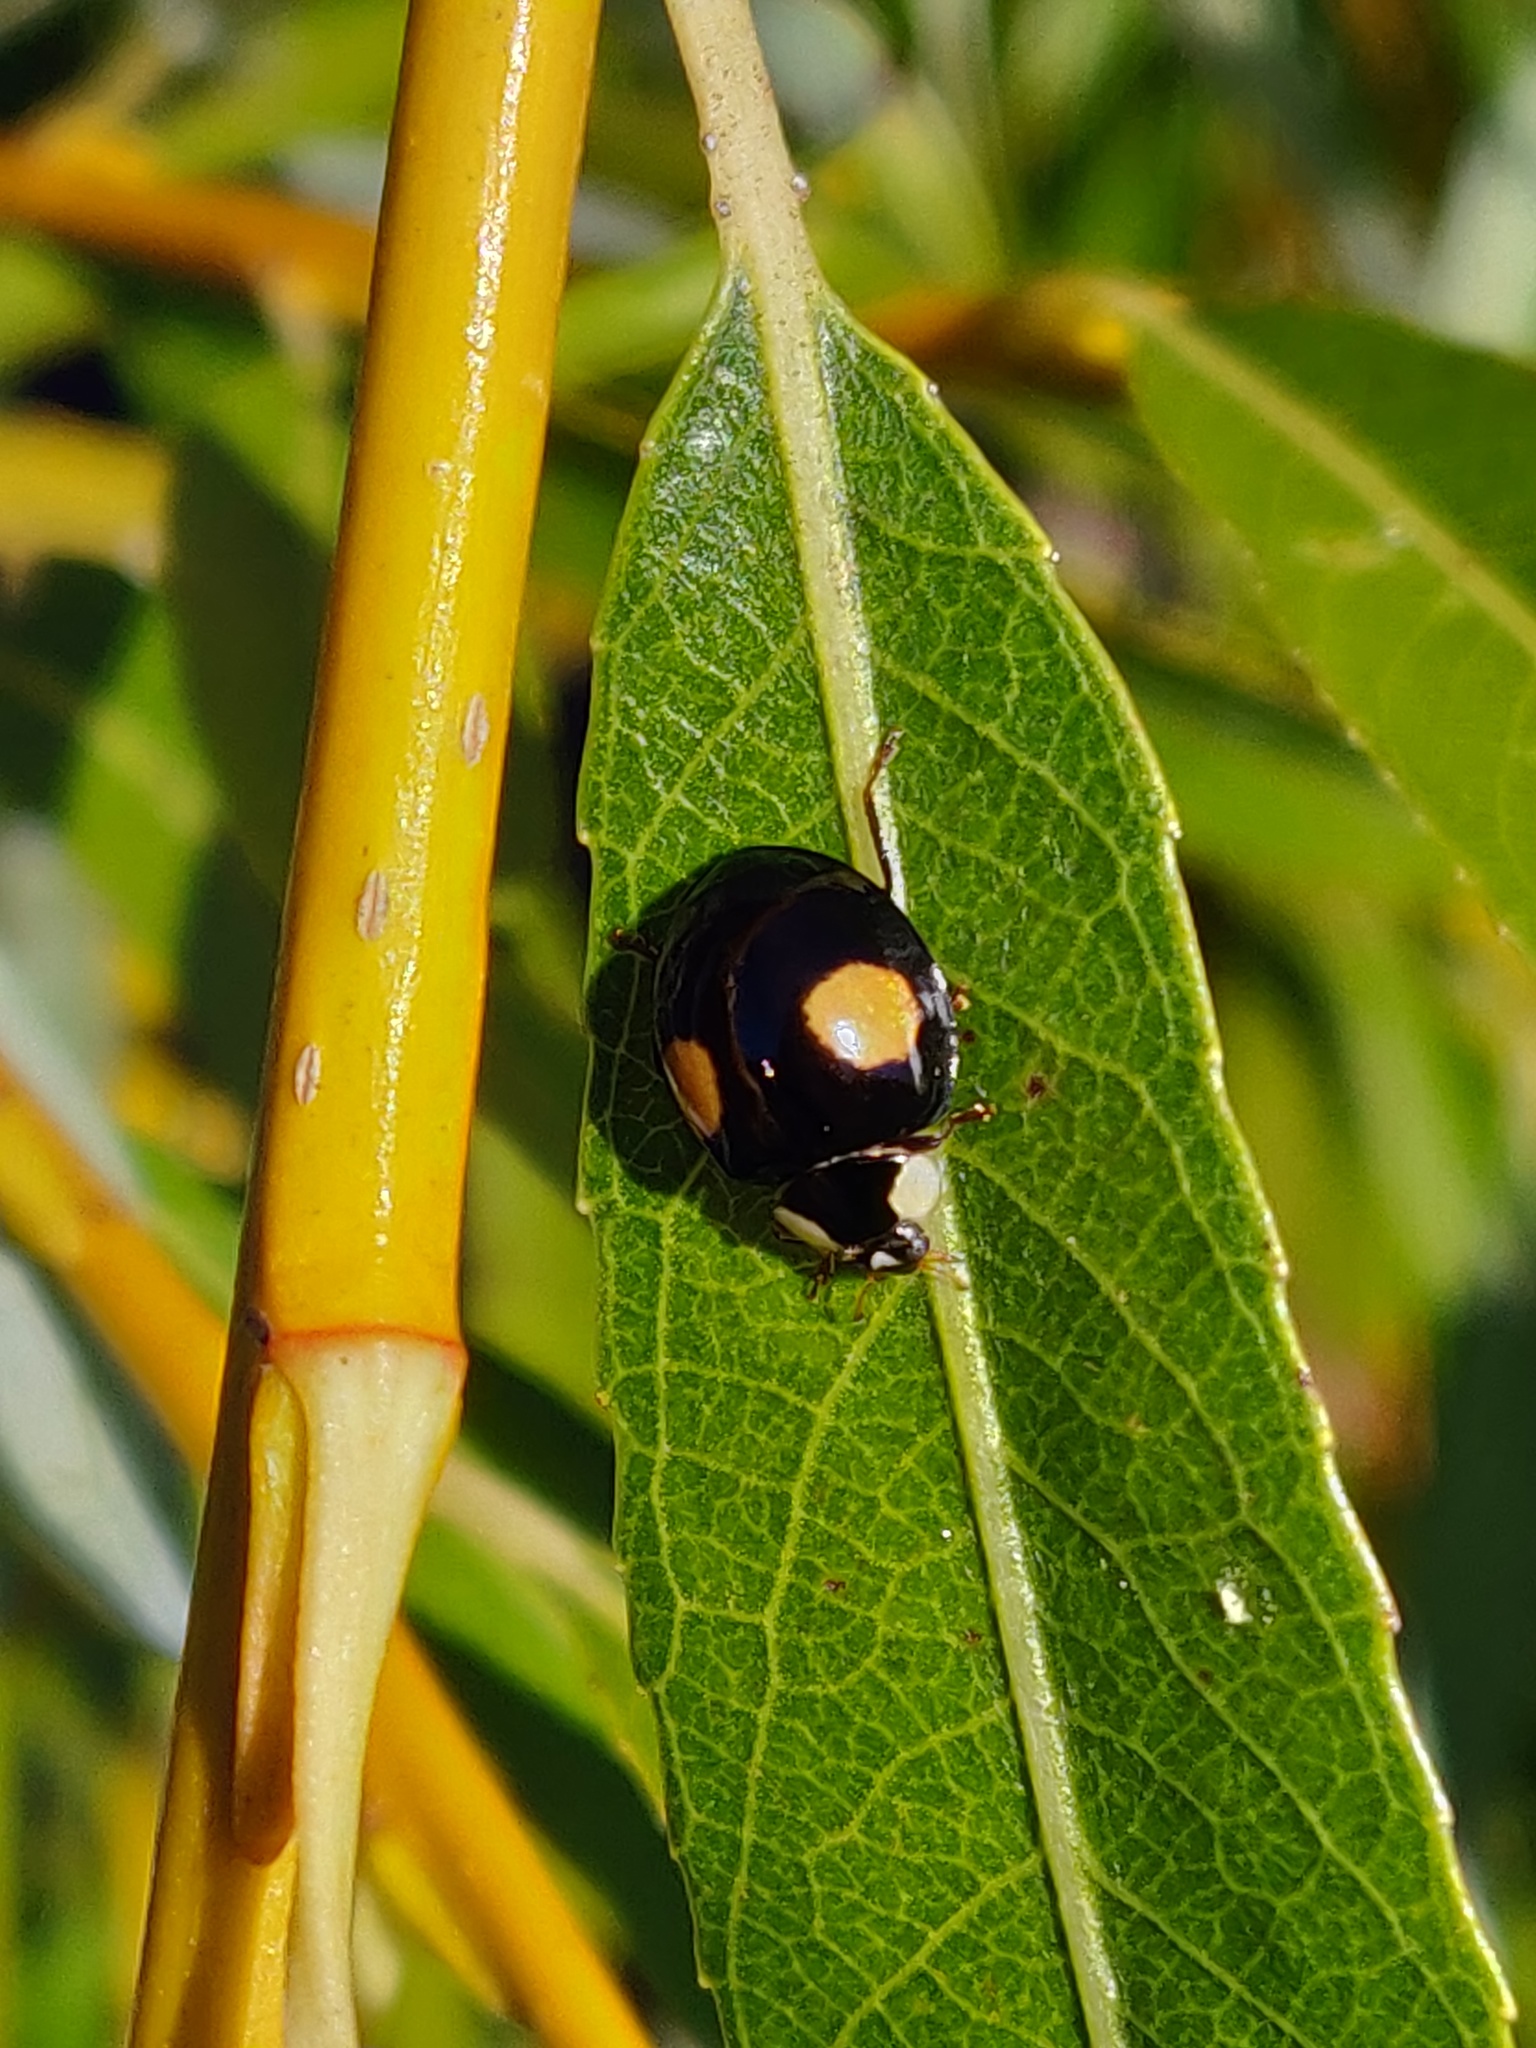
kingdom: Animalia
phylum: Arthropoda
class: Insecta
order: Coleoptera
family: Coccinellidae
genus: Harmonia
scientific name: Harmonia axyridis
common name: Harlequin ladybird
